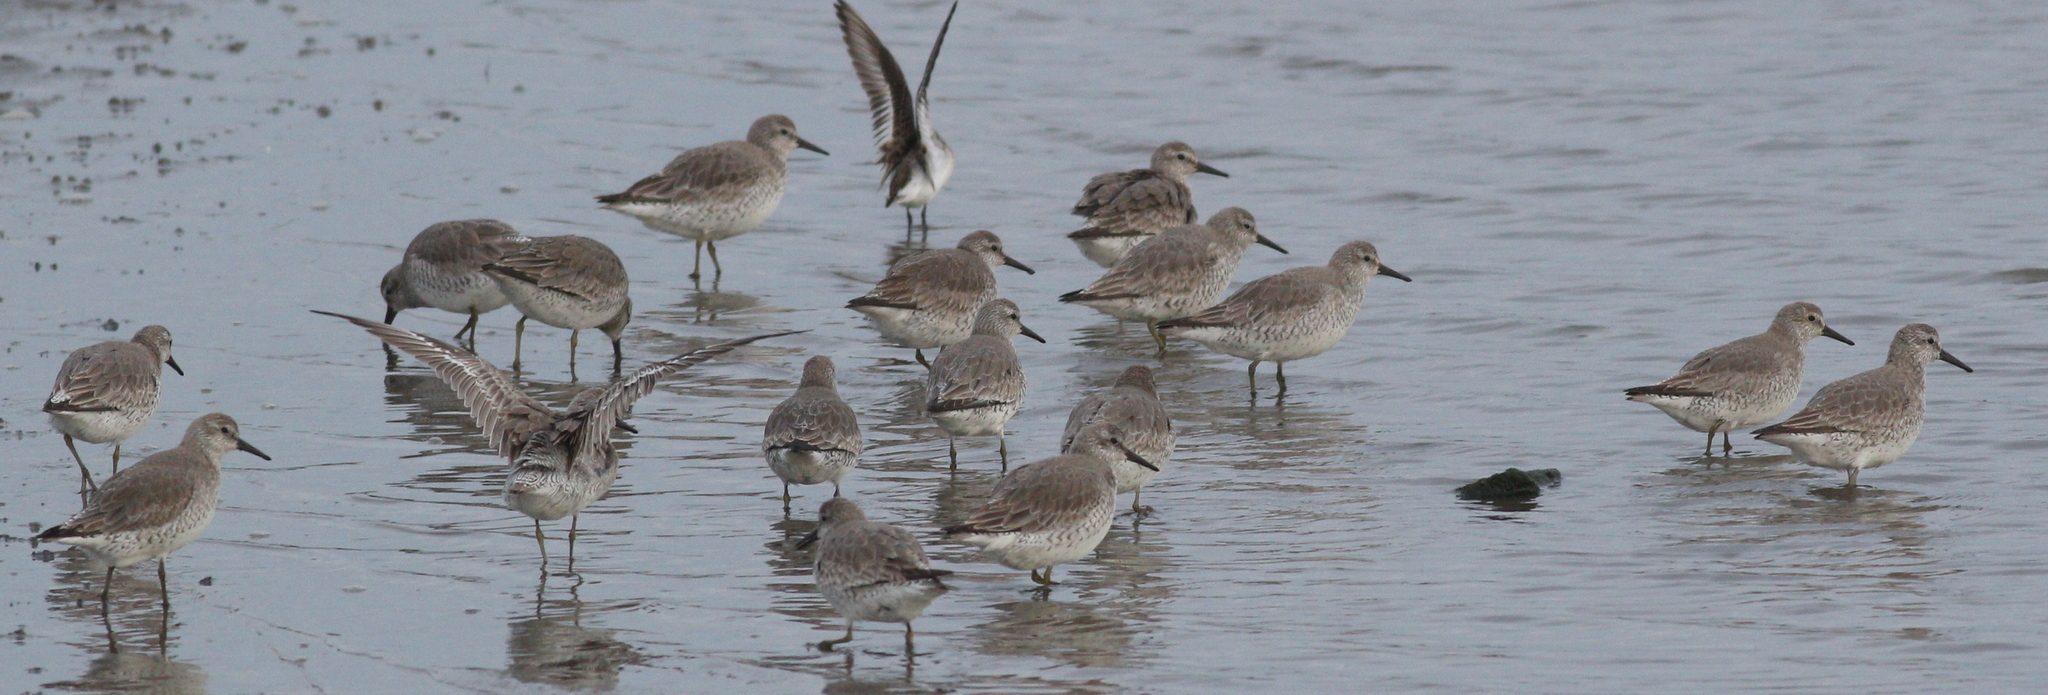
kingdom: Animalia
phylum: Chordata
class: Aves
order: Charadriiformes
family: Scolopacidae
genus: Calidris
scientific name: Calidris canutus
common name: Red knot
